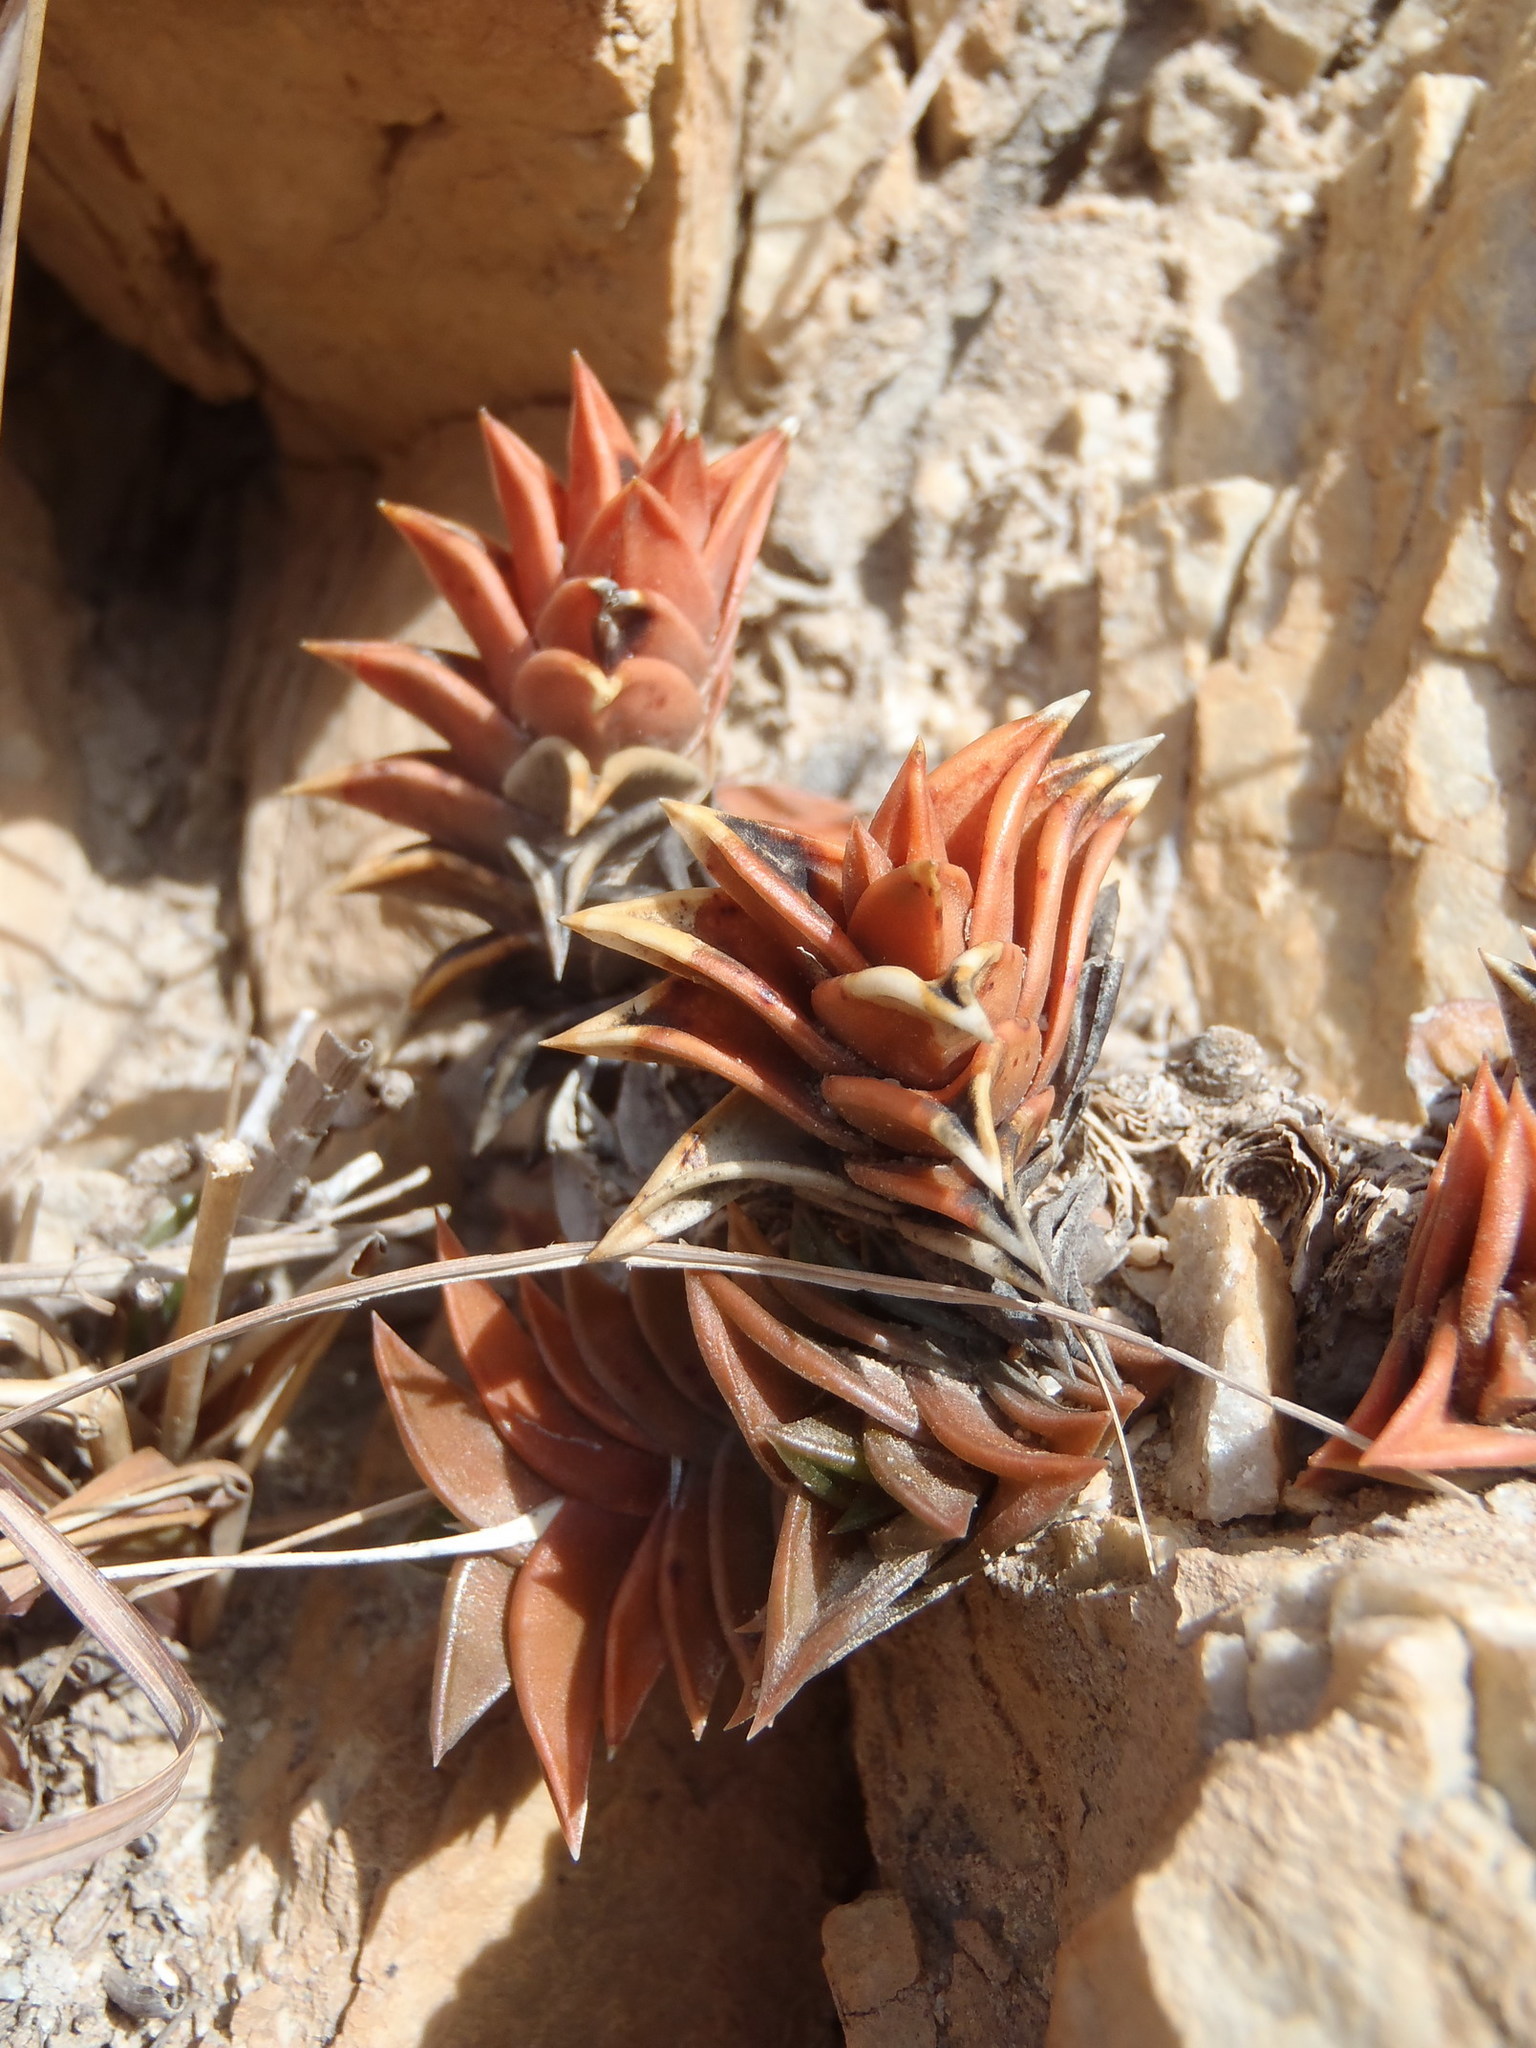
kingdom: Plantae
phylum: Tracheophyta
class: Liliopsida
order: Asparagales
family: Asphodelaceae
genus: Haworthiopsis
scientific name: Haworthiopsis viscosa
